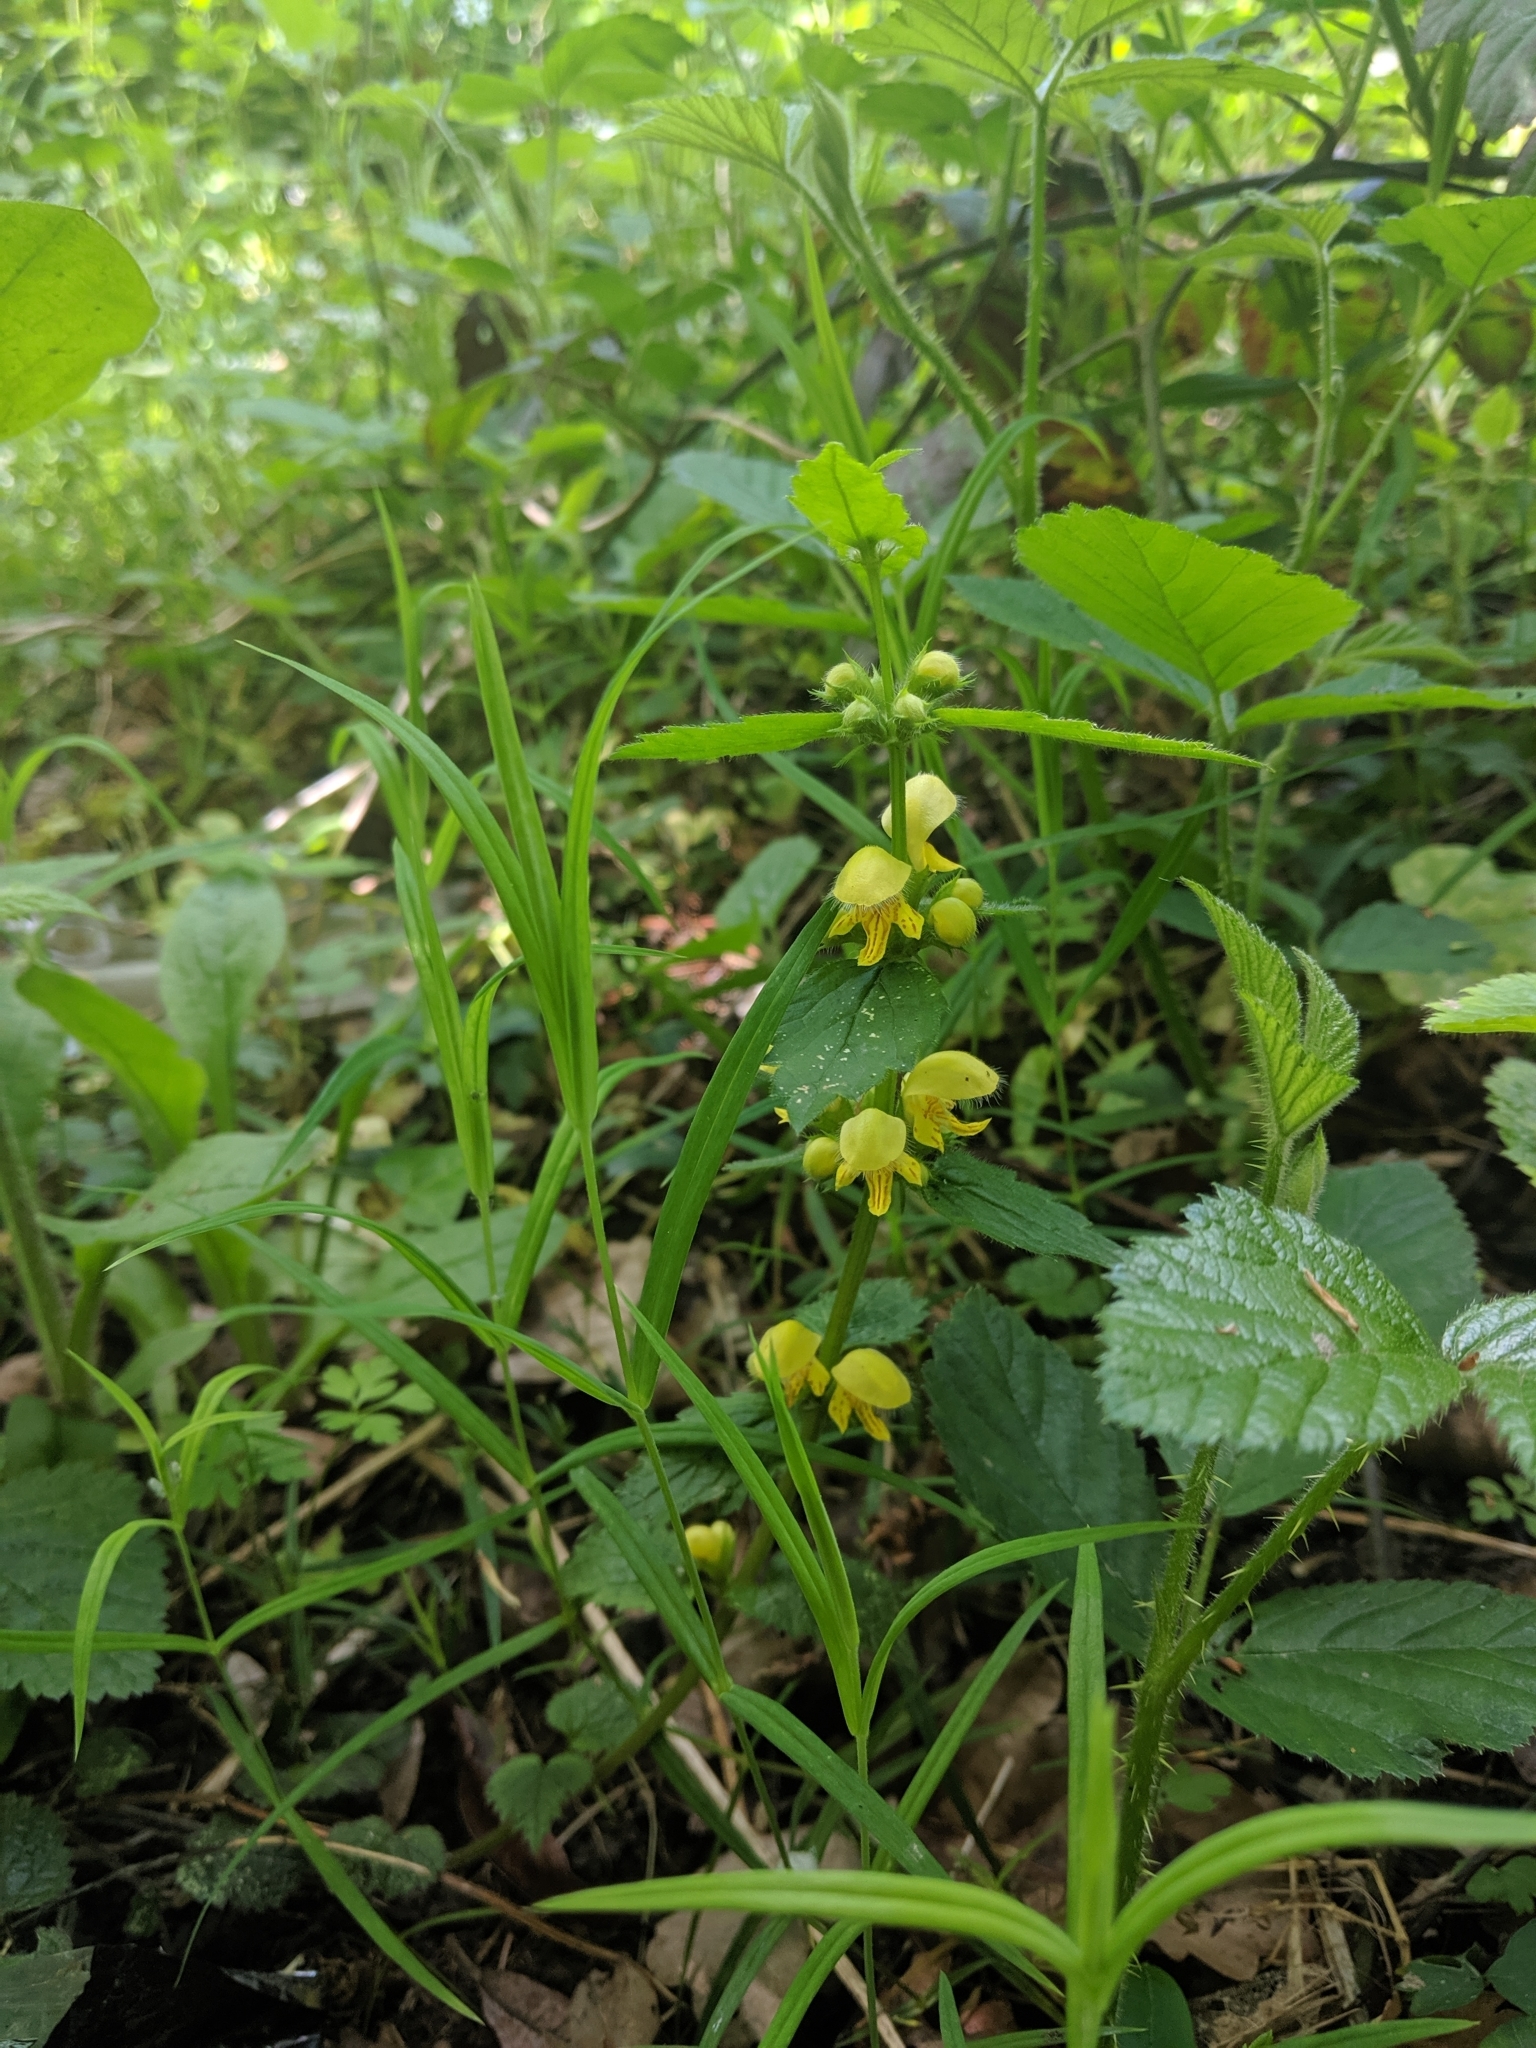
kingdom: Plantae
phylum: Tracheophyta
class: Magnoliopsida
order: Lamiales
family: Lamiaceae
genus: Lamium
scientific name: Lamium galeobdolon
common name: Yellow archangel
